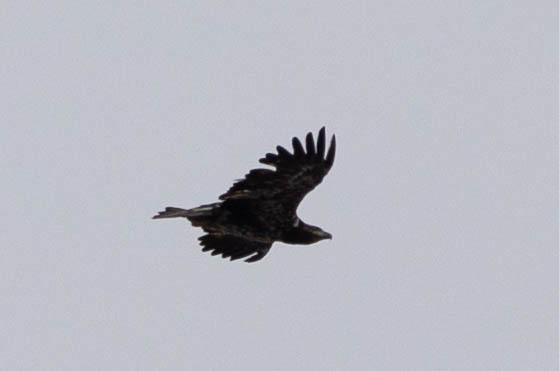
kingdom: Animalia
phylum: Chordata
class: Aves
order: Accipitriformes
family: Accipitridae
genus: Haliaeetus
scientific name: Haliaeetus leucocephalus
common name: Bald eagle
